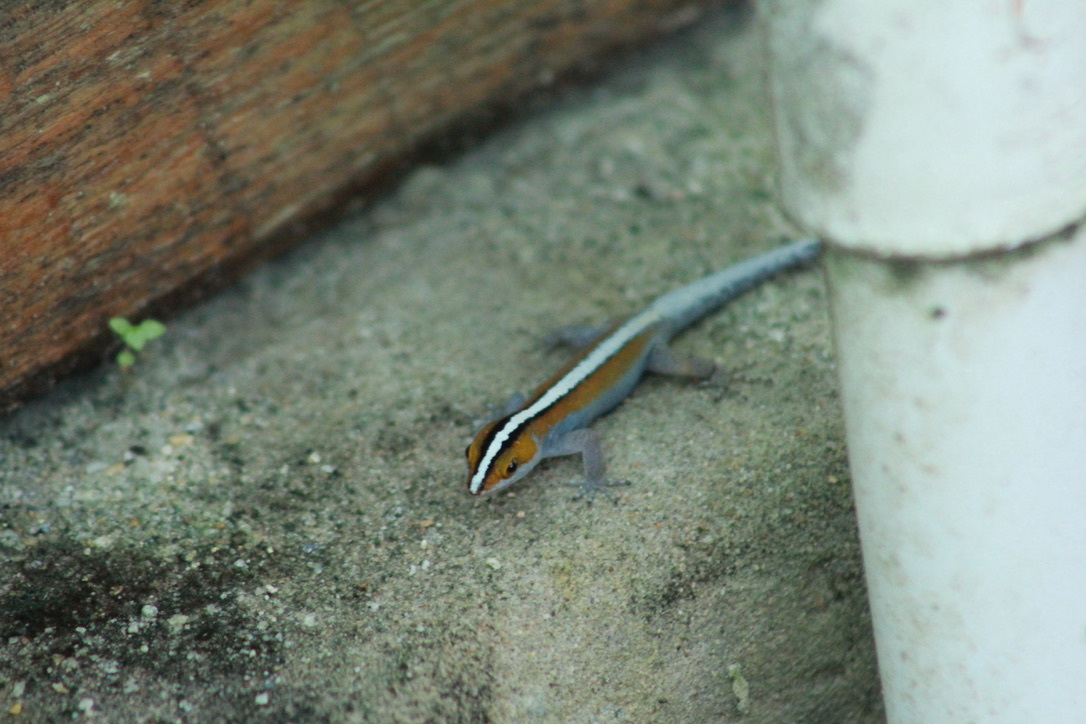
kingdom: Animalia
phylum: Chordata
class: Squamata
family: Sphaerodactylidae
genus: Gonatodes
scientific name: Gonatodes vittatus
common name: Wiegmann's striped gecko
